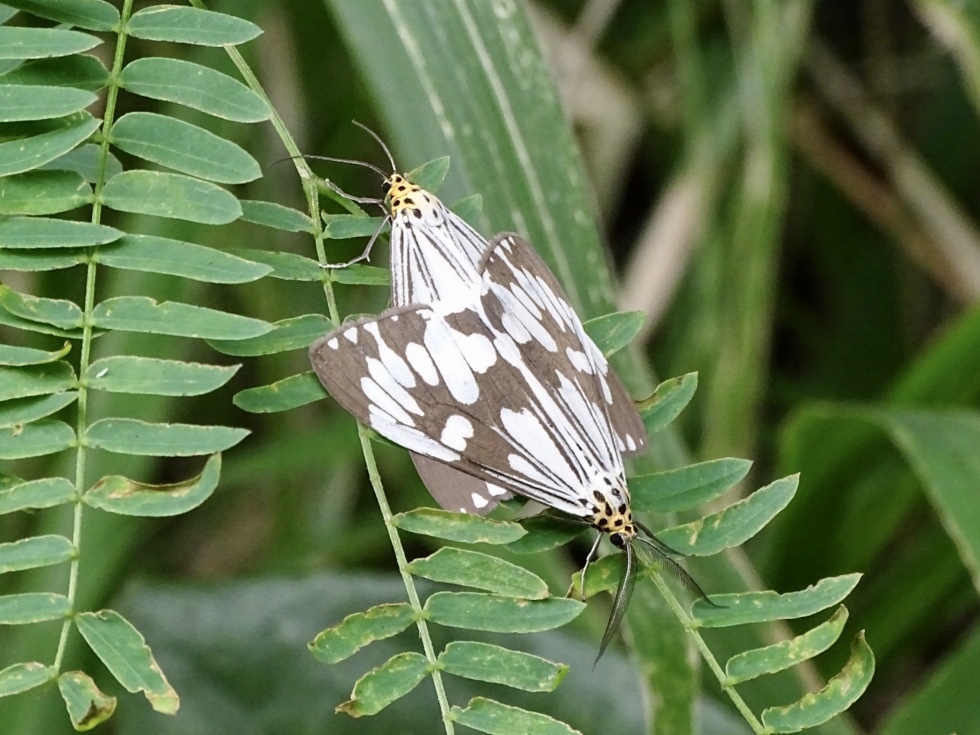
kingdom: Animalia
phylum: Arthropoda
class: Insecta
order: Lepidoptera
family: Erebidae
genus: Nyctemera
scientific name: Nyctemera adversata
